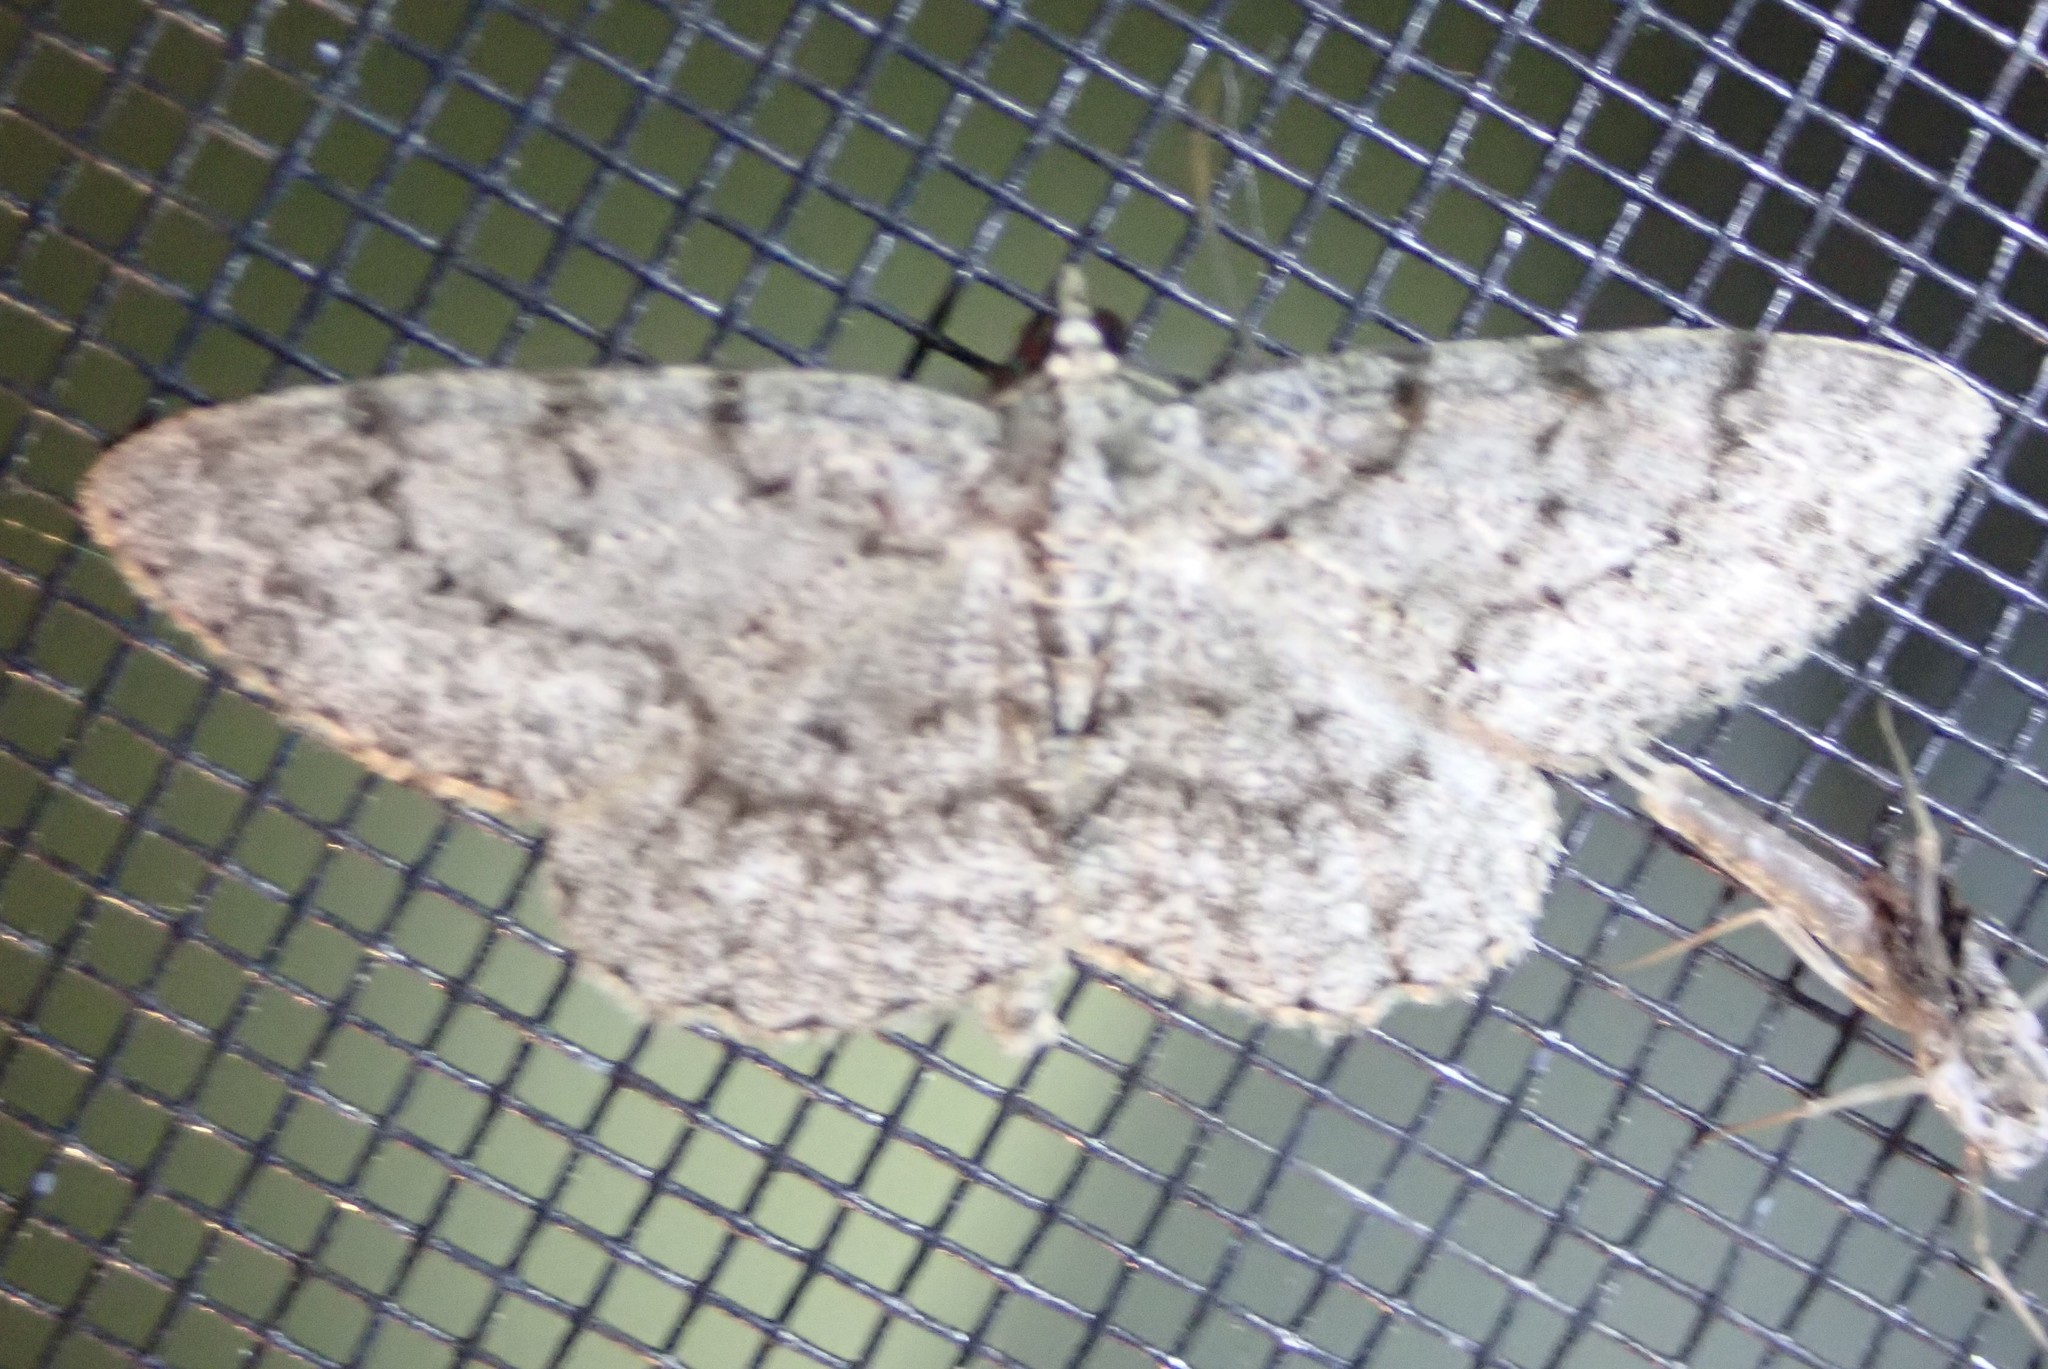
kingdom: Animalia
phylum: Arthropoda
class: Insecta
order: Lepidoptera
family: Geometridae
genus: Protoboarmia
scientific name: Protoboarmia porcelaria
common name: Porcelain gray
